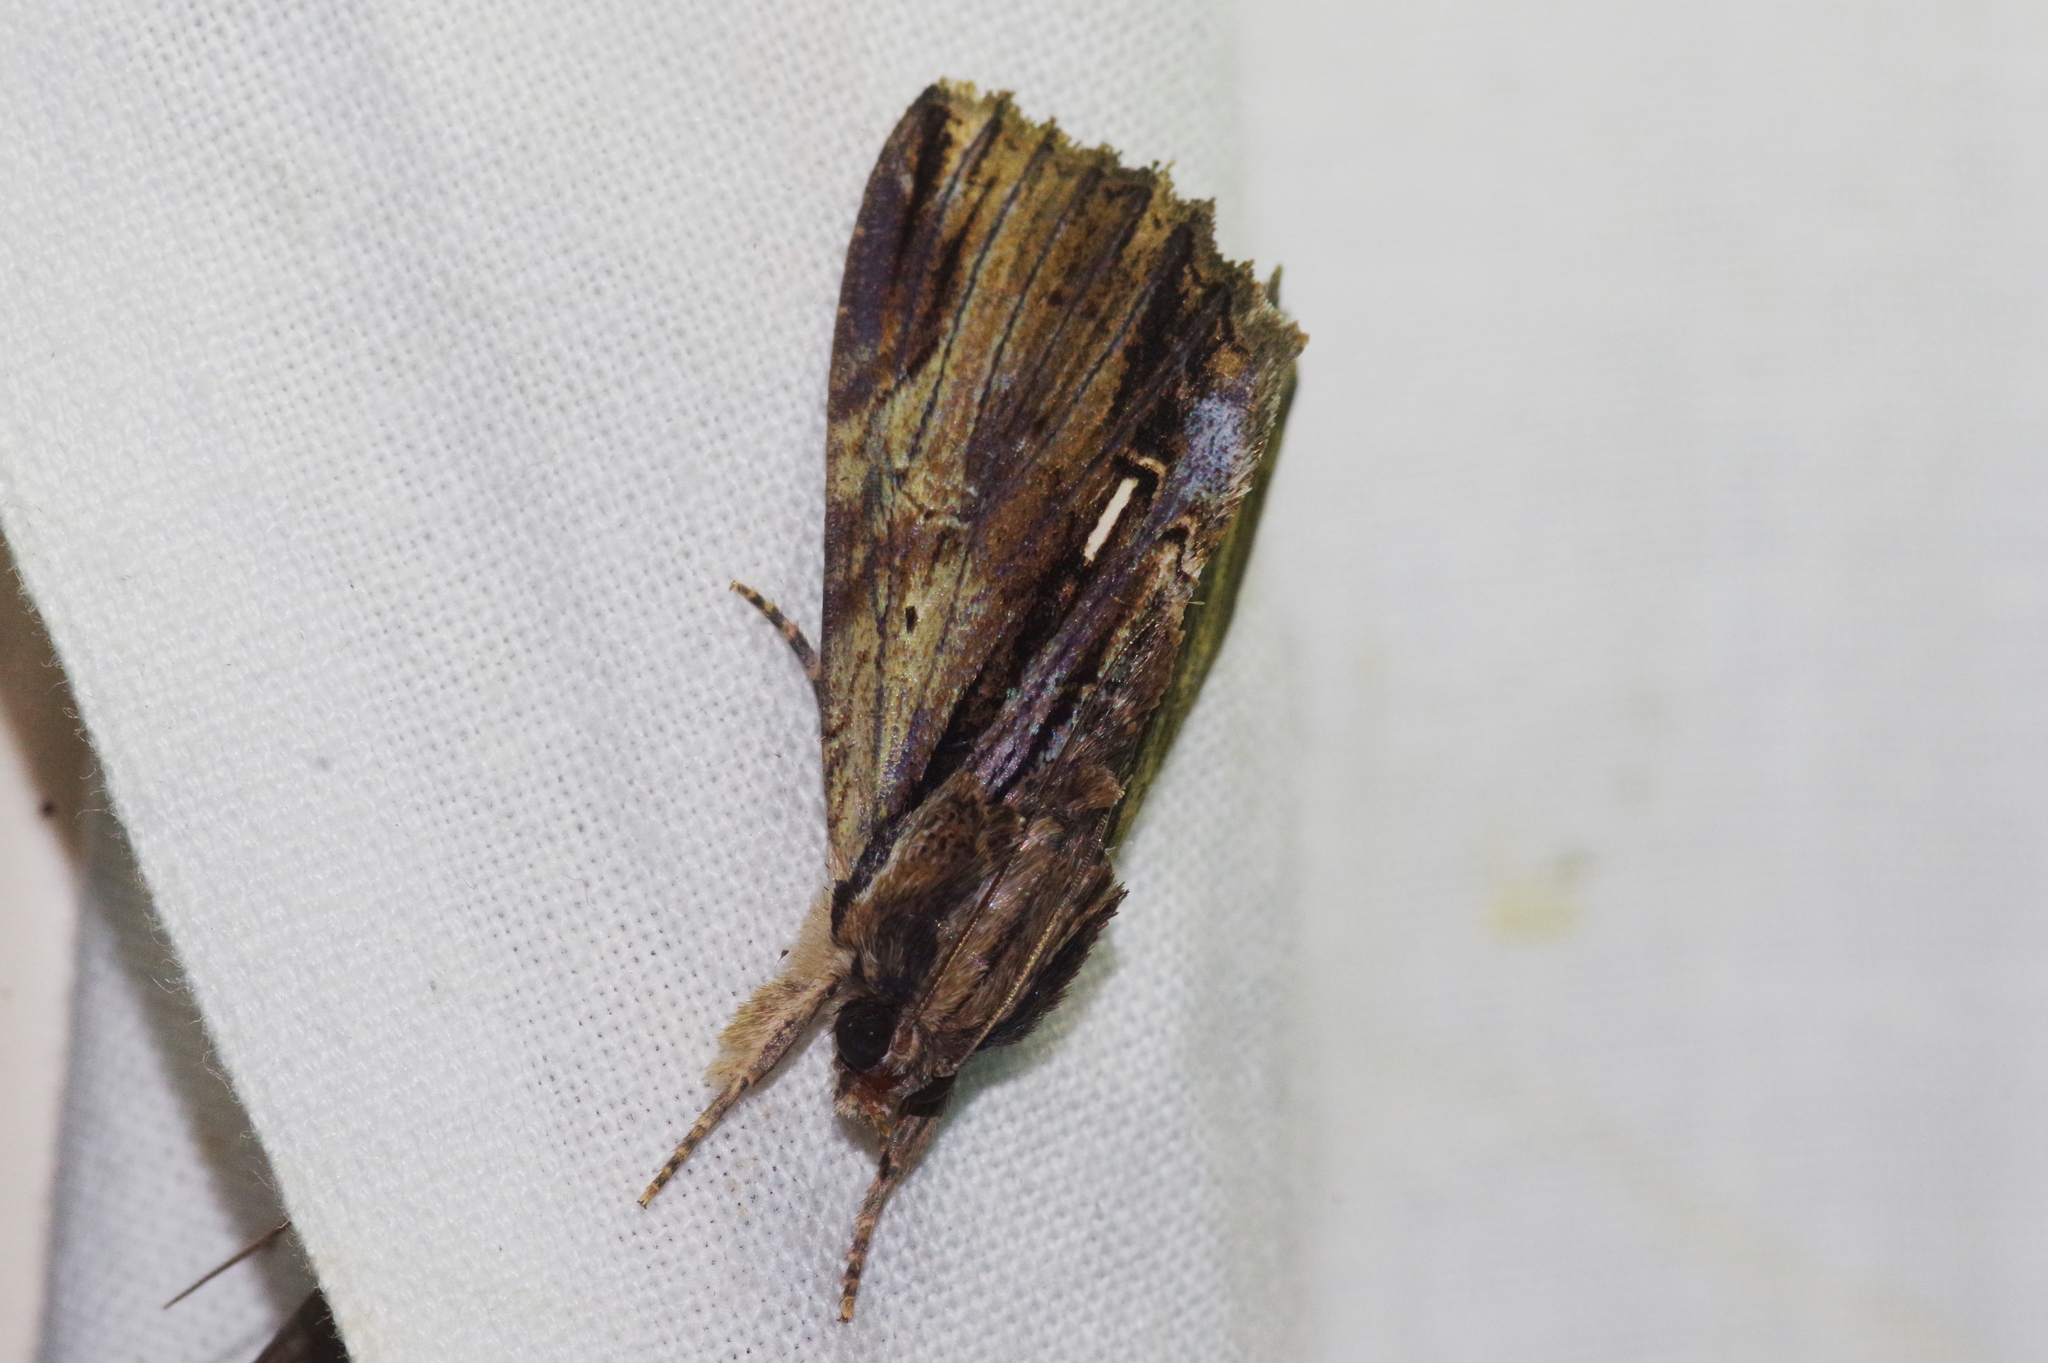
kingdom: Animalia
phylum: Arthropoda
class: Insecta
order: Lepidoptera
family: Erebidae
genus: Ercheia
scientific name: Ercheia niveostrigata
